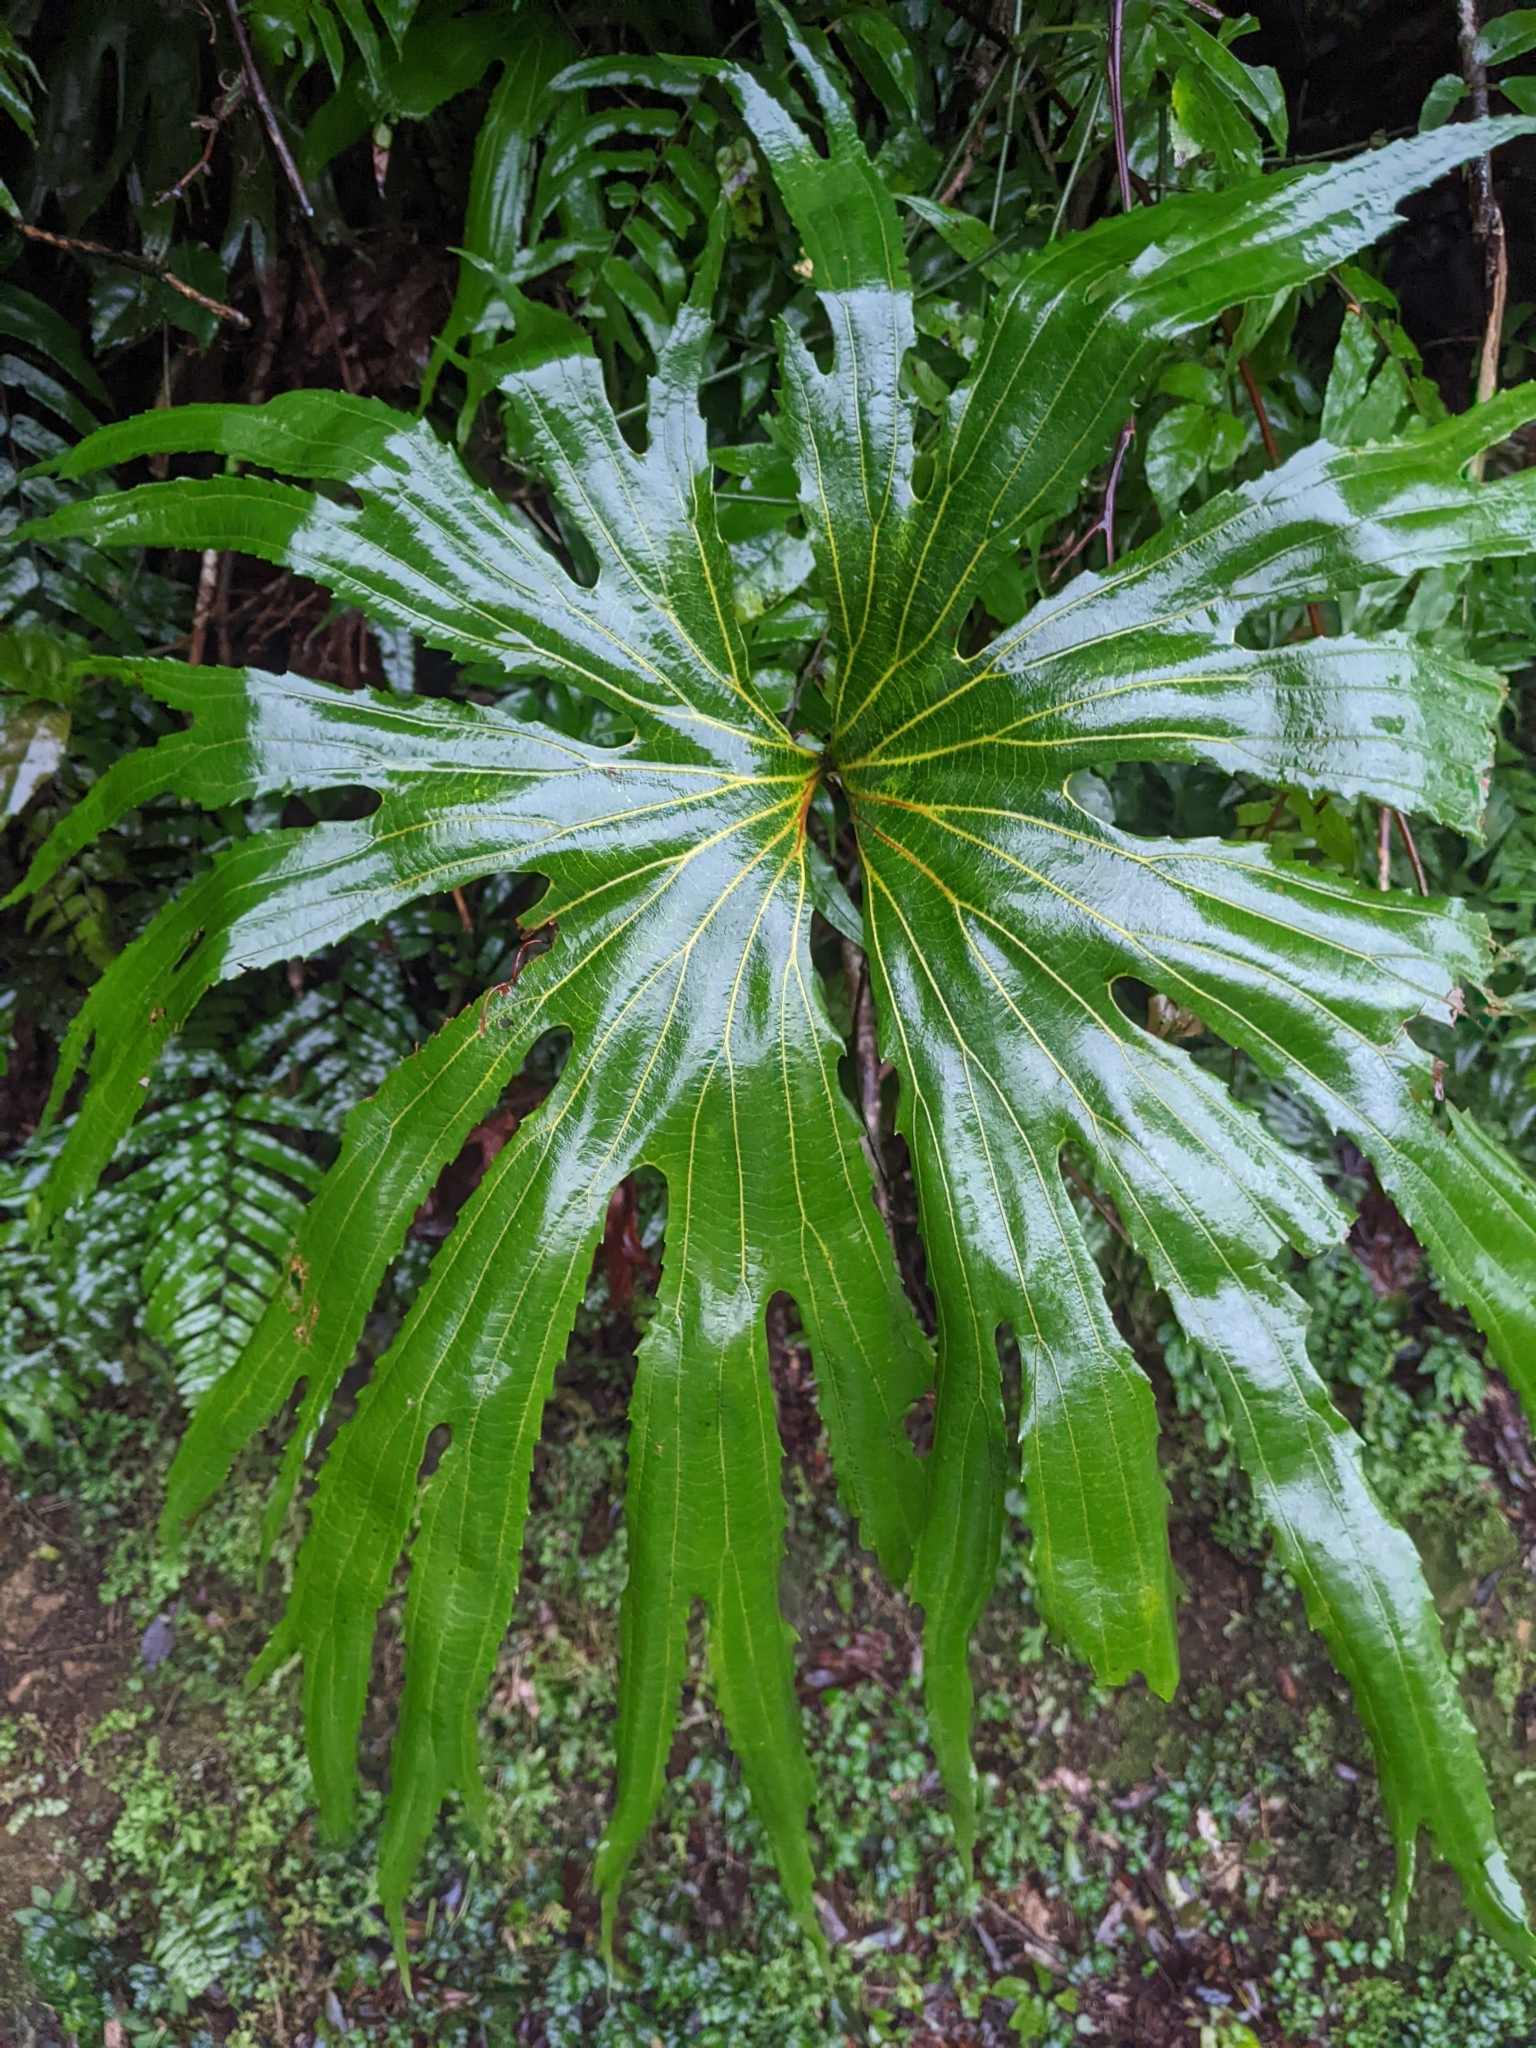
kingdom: Plantae
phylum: Tracheophyta
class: Polypodiopsida
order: Gleicheniales
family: Dipteridaceae
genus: Dipteris
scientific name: Dipteris conjugata
